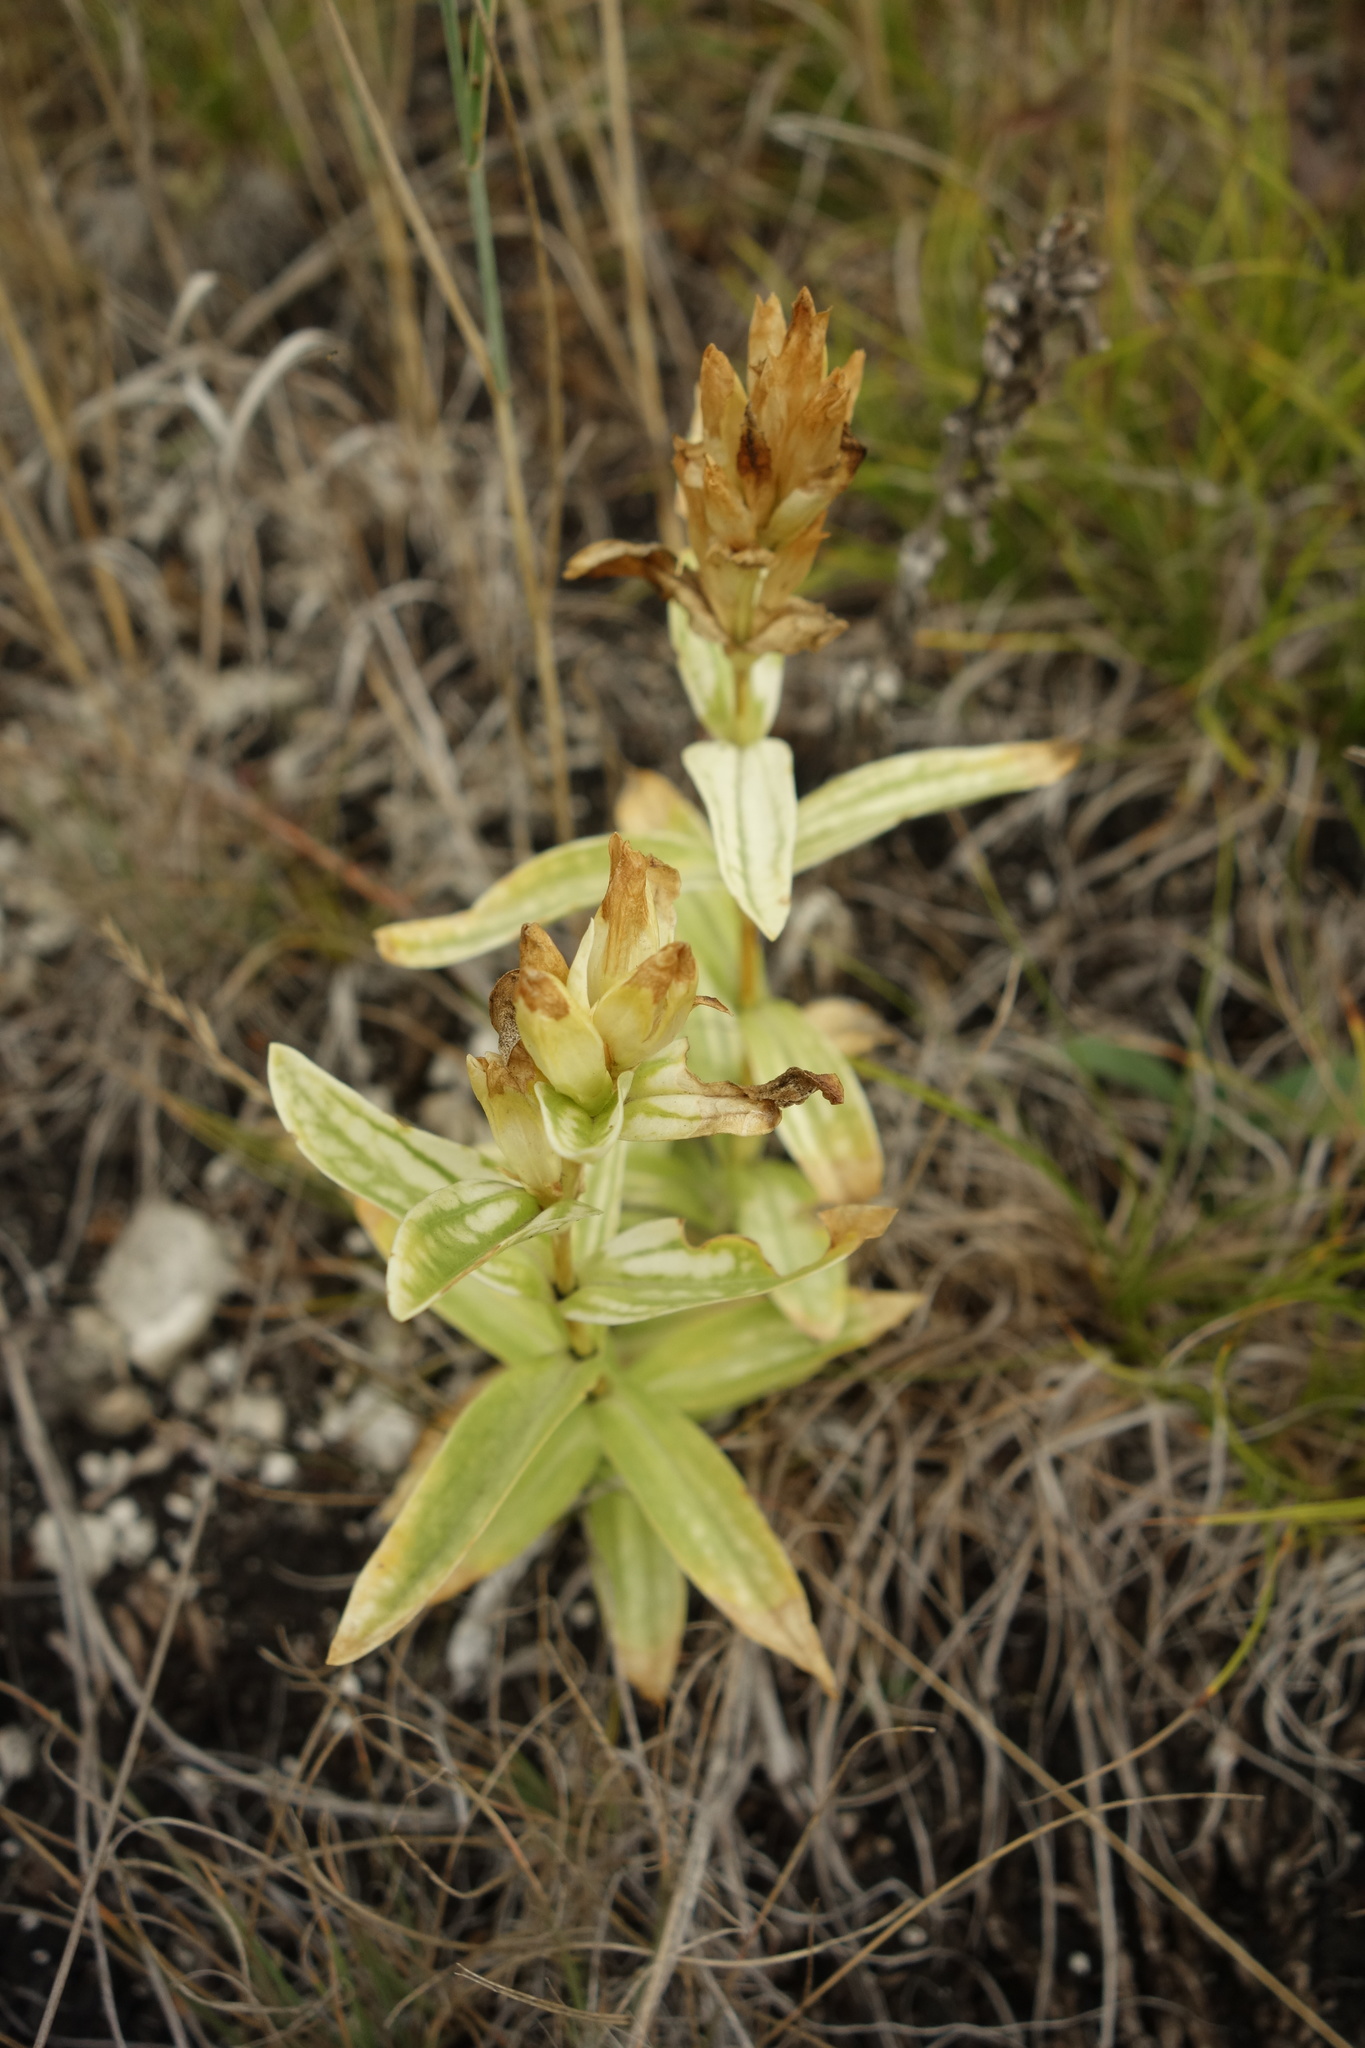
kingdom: Plantae
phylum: Tracheophyta
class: Magnoliopsida
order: Gentianales
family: Gentianaceae
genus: Gentiana
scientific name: Gentiana cruciata
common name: Cross gentian
